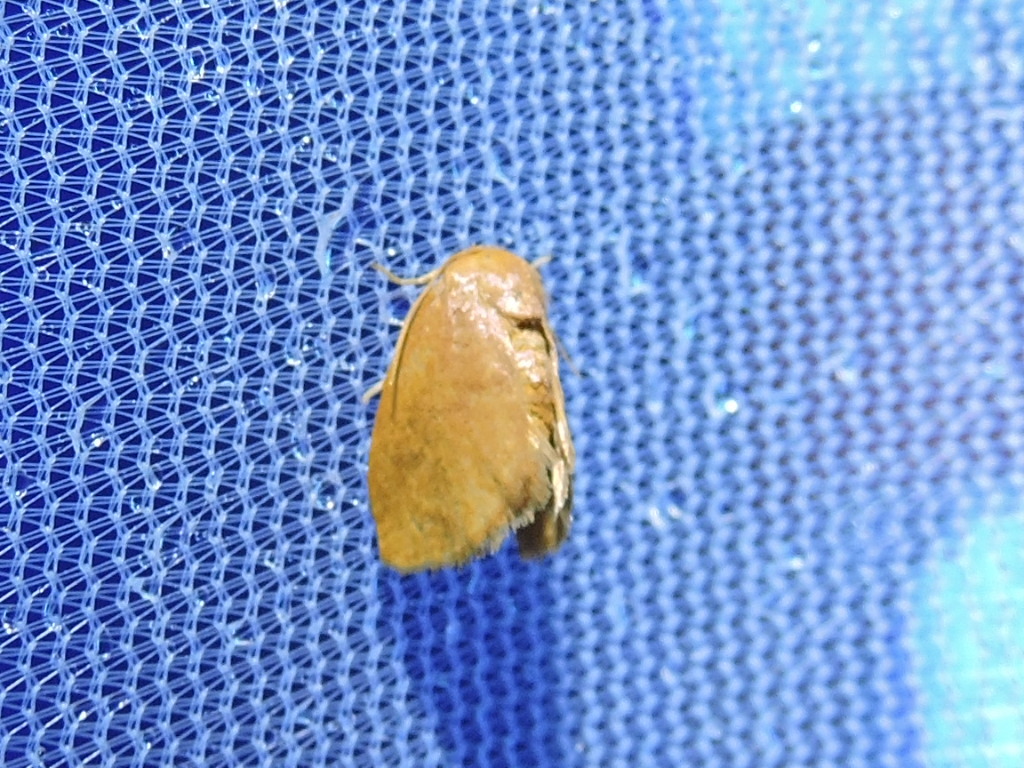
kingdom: Animalia
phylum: Arthropoda
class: Insecta
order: Lepidoptera
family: Limacodidae
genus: Isa
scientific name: Isa textula
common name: Crowned slug moth
